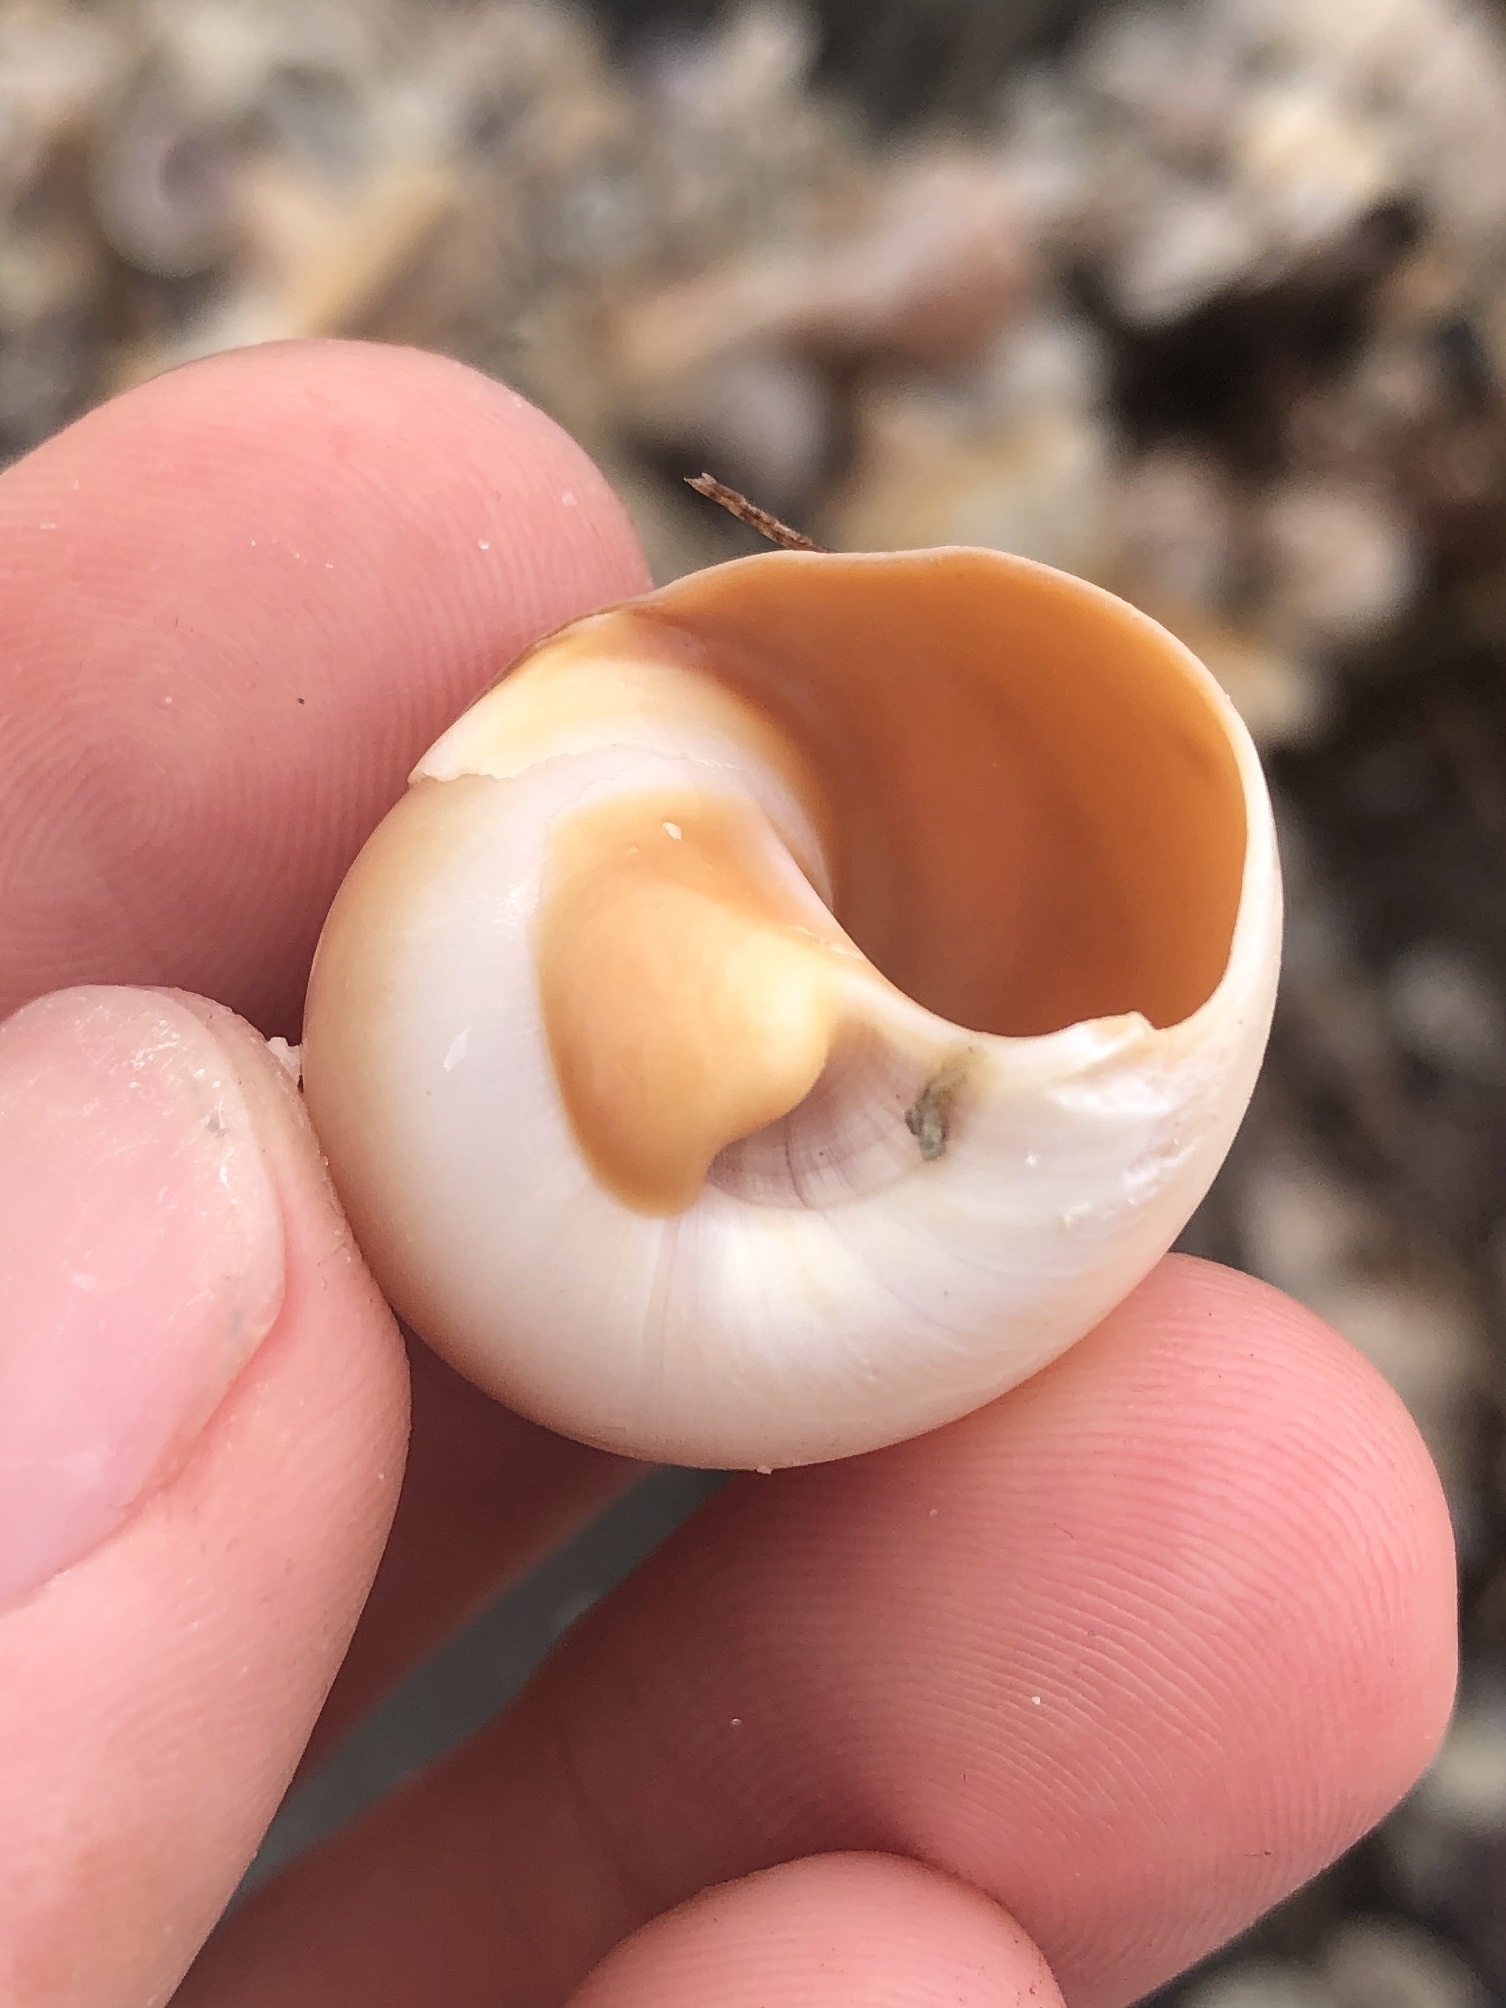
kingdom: Animalia
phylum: Mollusca
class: Gastropoda
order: Littorinimorpha
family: Naticidae
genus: Neverita
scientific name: Neverita delessertiana
